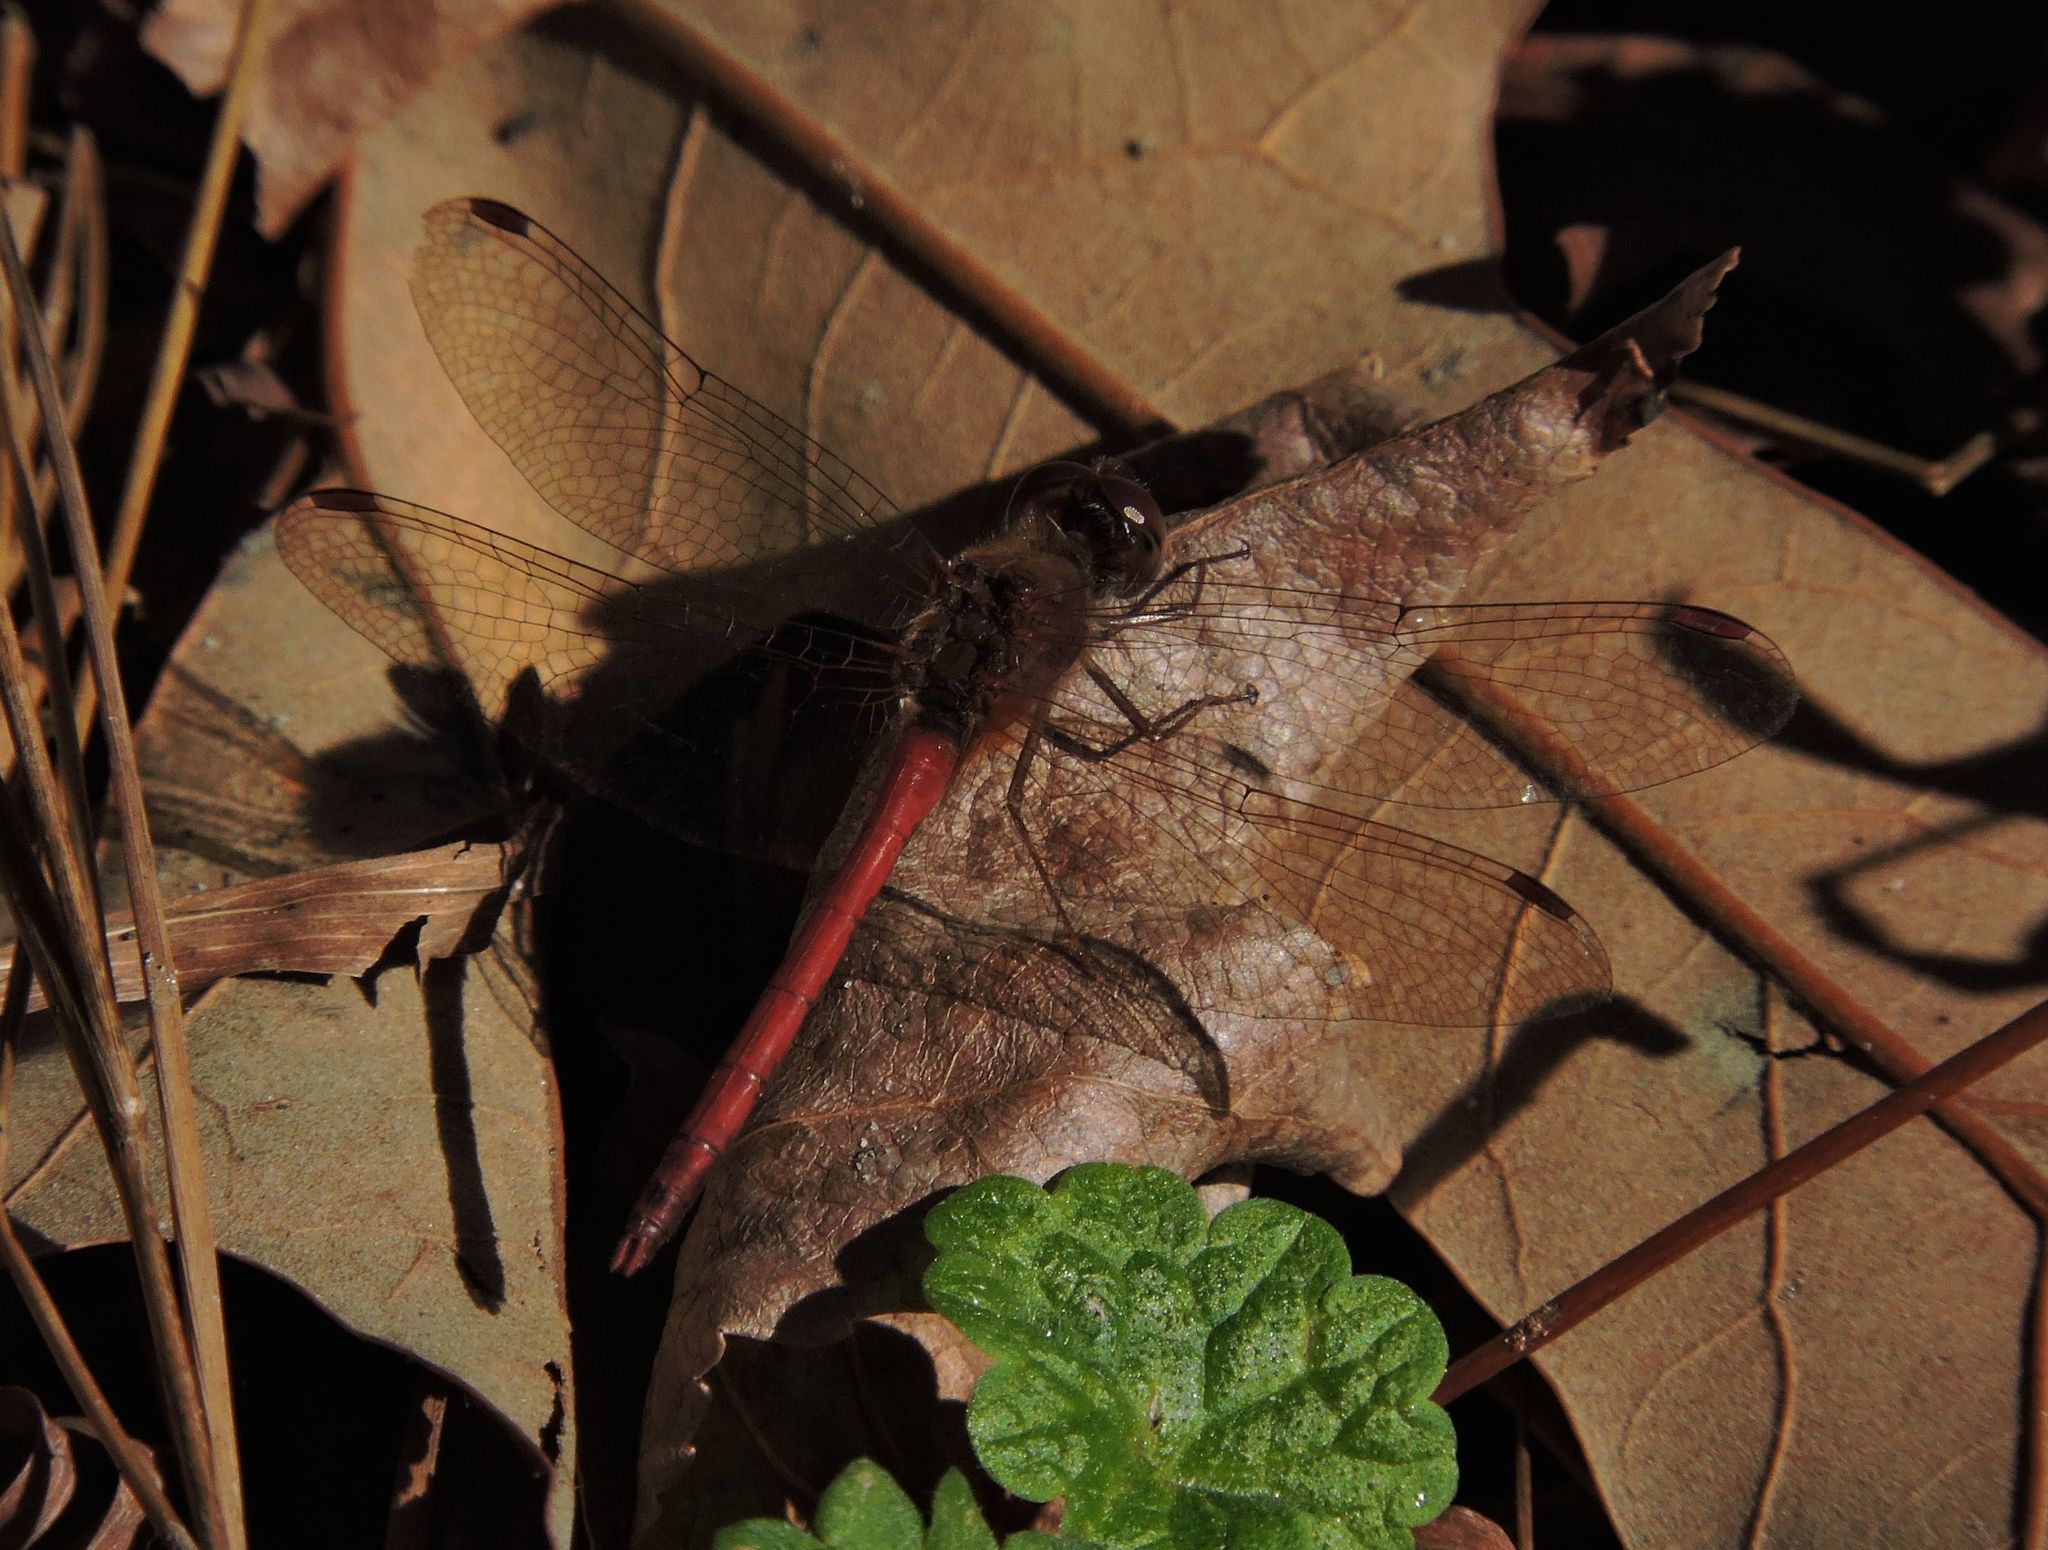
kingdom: Animalia
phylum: Arthropoda
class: Insecta
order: Odonata
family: Libellulidae
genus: Sympetrum
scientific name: Sympetrum vicinum
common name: Autumn meadowhawk
